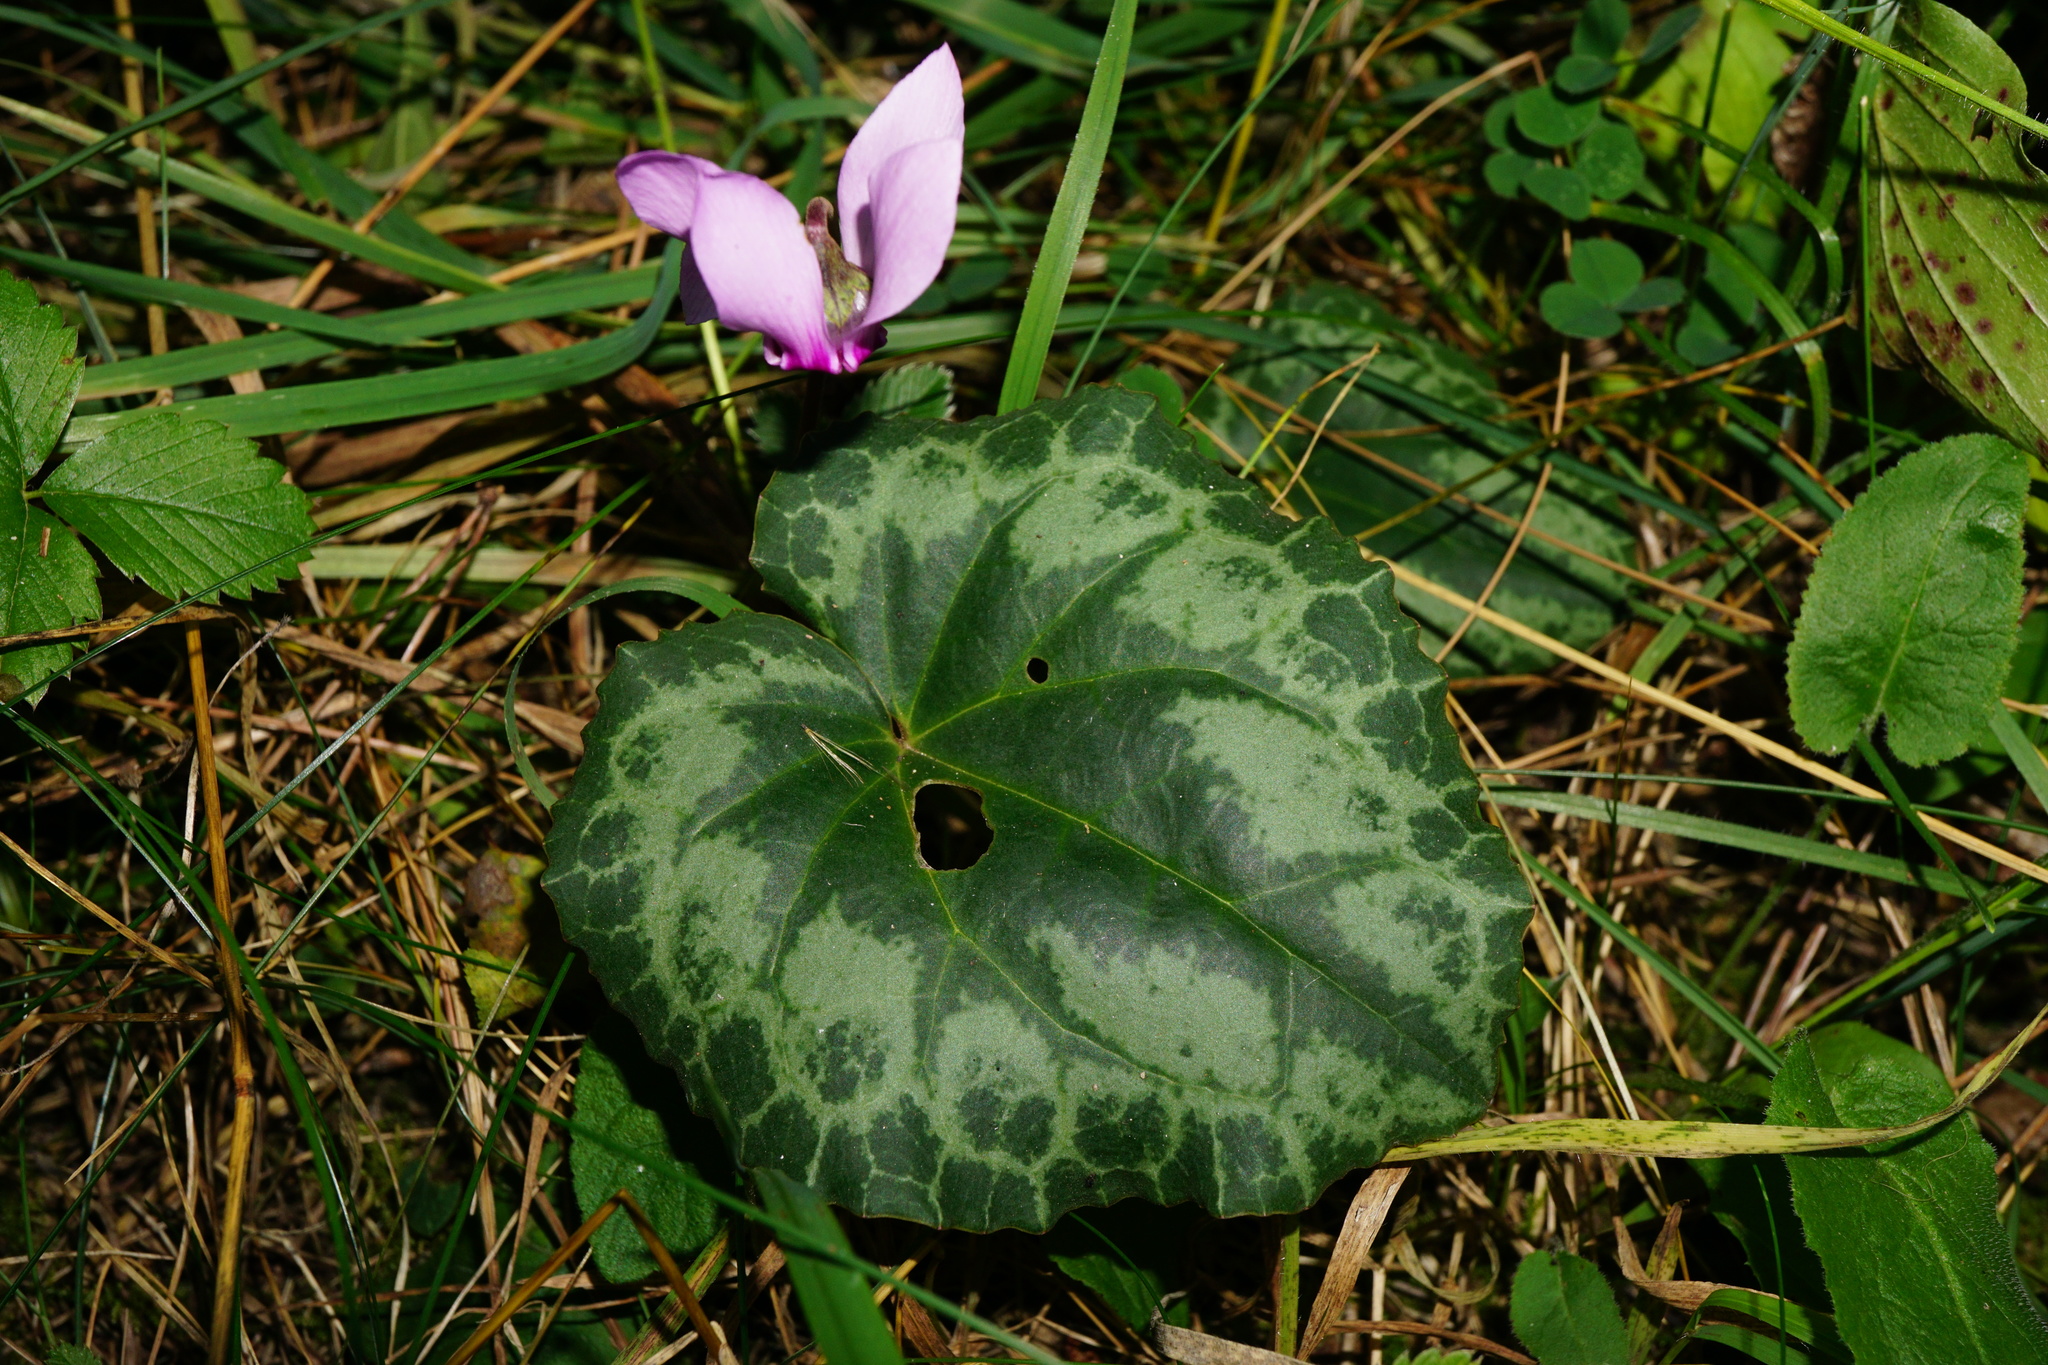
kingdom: Plantae
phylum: Tracheophyta
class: Magnoliopsida
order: Ericales
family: Primulaceae
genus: Cyclamen
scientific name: Cyclamen purpurascens
